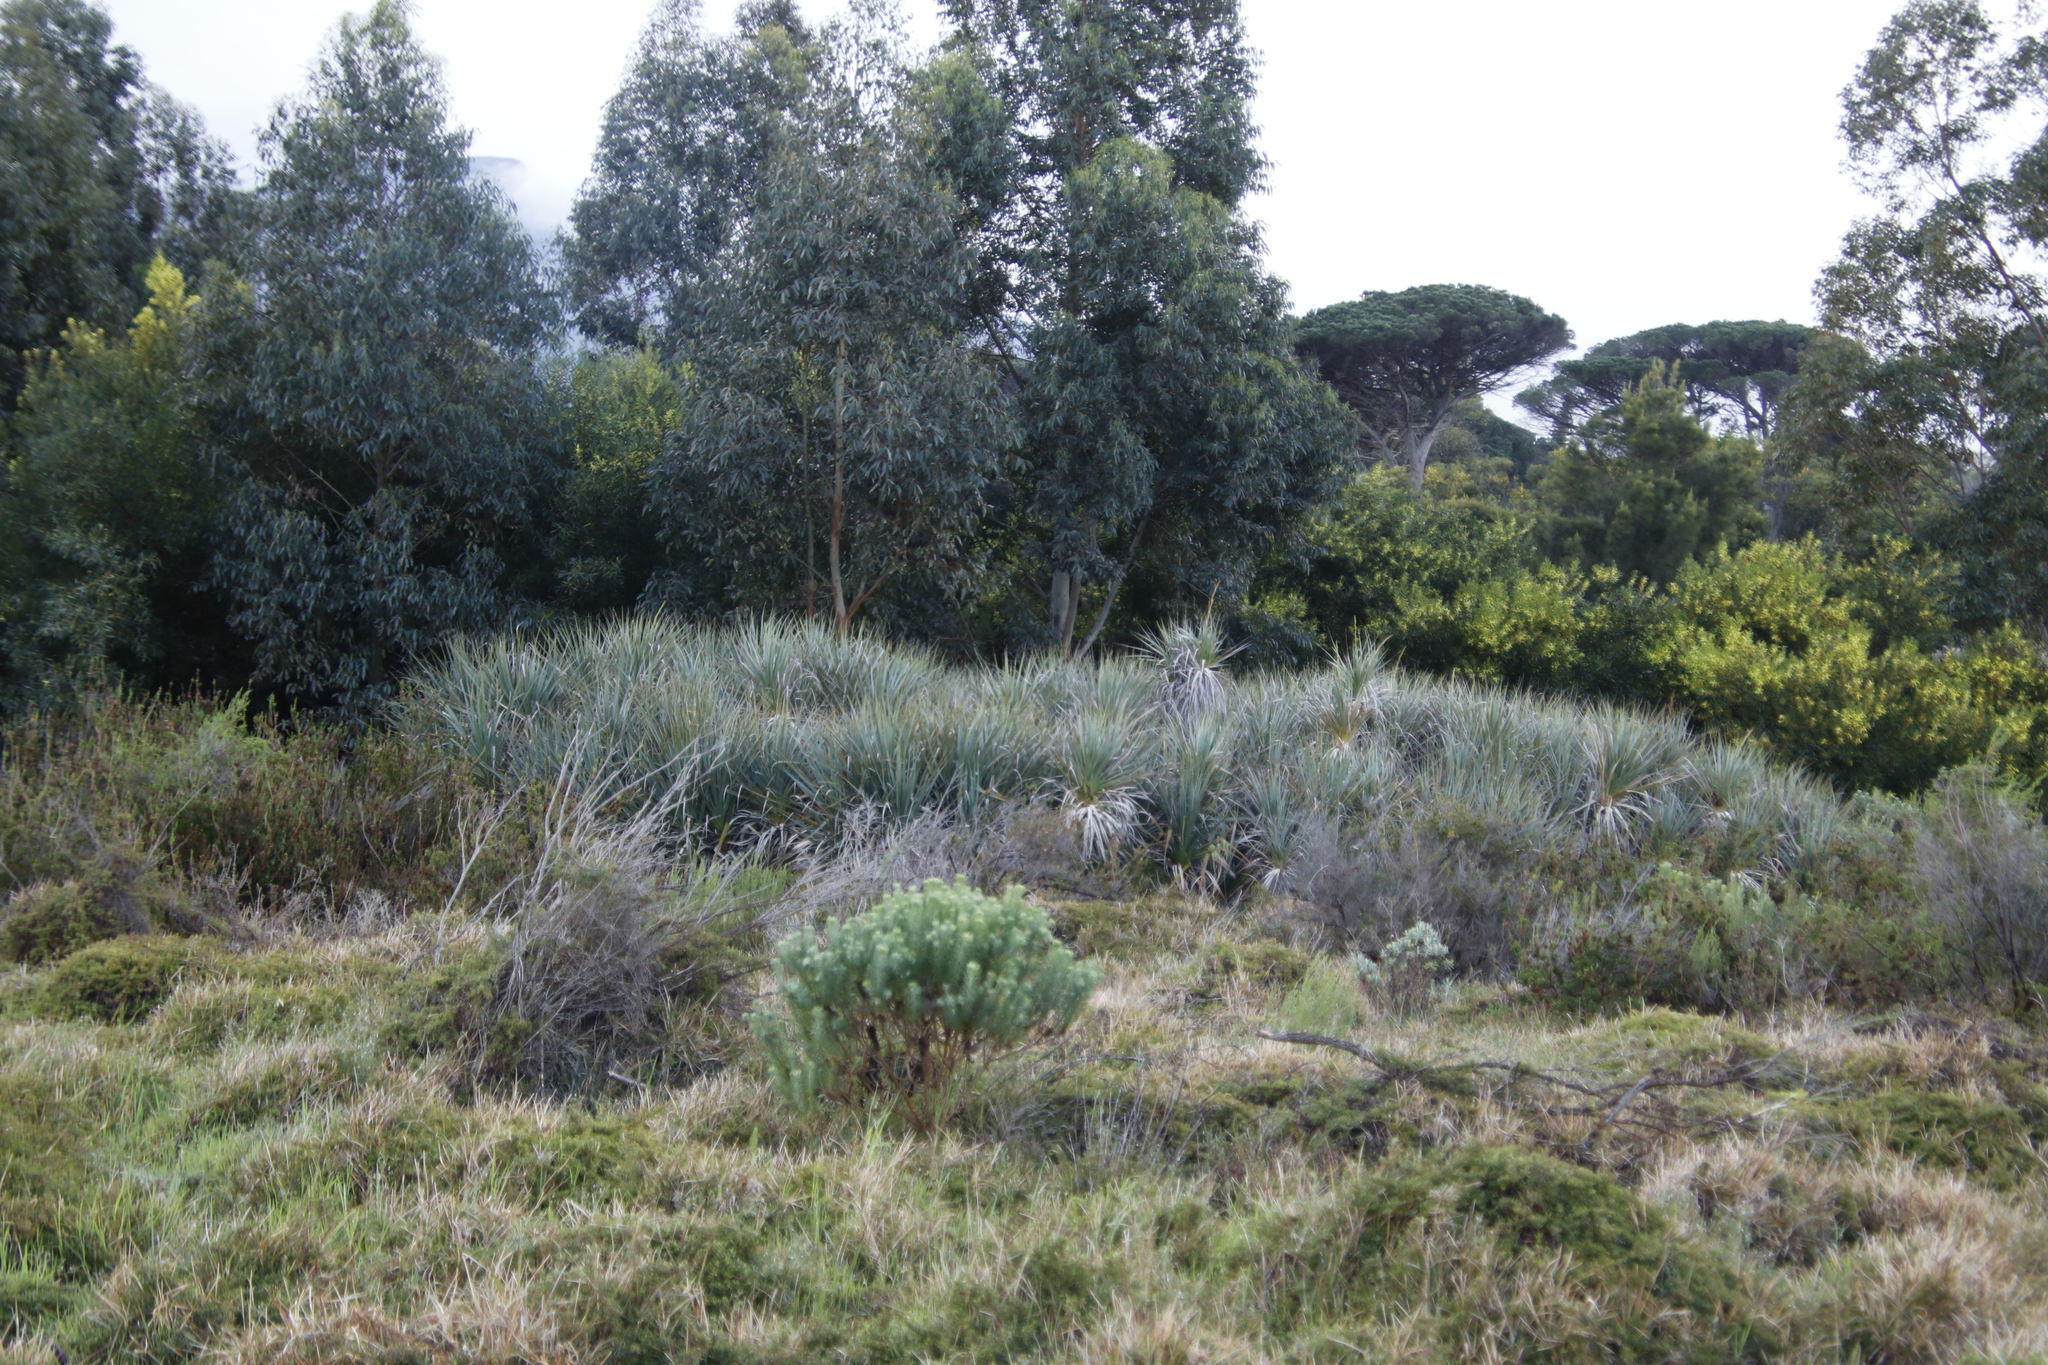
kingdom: Plantae
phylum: Tracheophyta
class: Liliopsida
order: Poales
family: Thurniaceae
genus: Prionium
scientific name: Prionium serratum
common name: Palmiet
